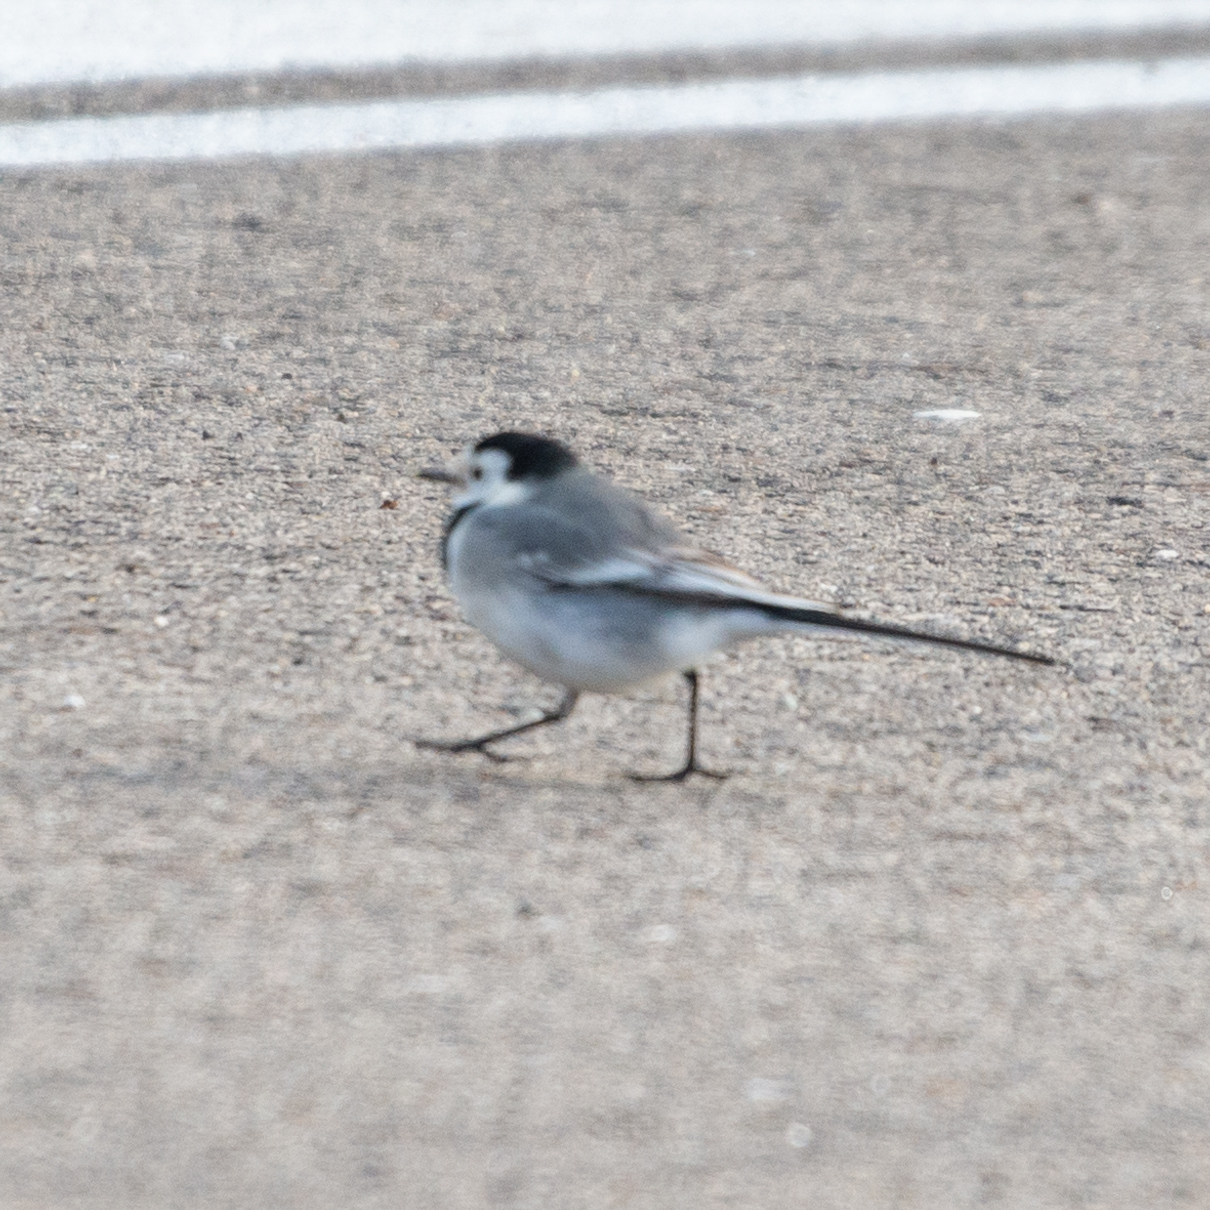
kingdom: Animalia
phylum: Chordata
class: Aves
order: Passeriformes
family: Motacillidae
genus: Motacilla
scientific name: Motacilla alba
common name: White wagtail
